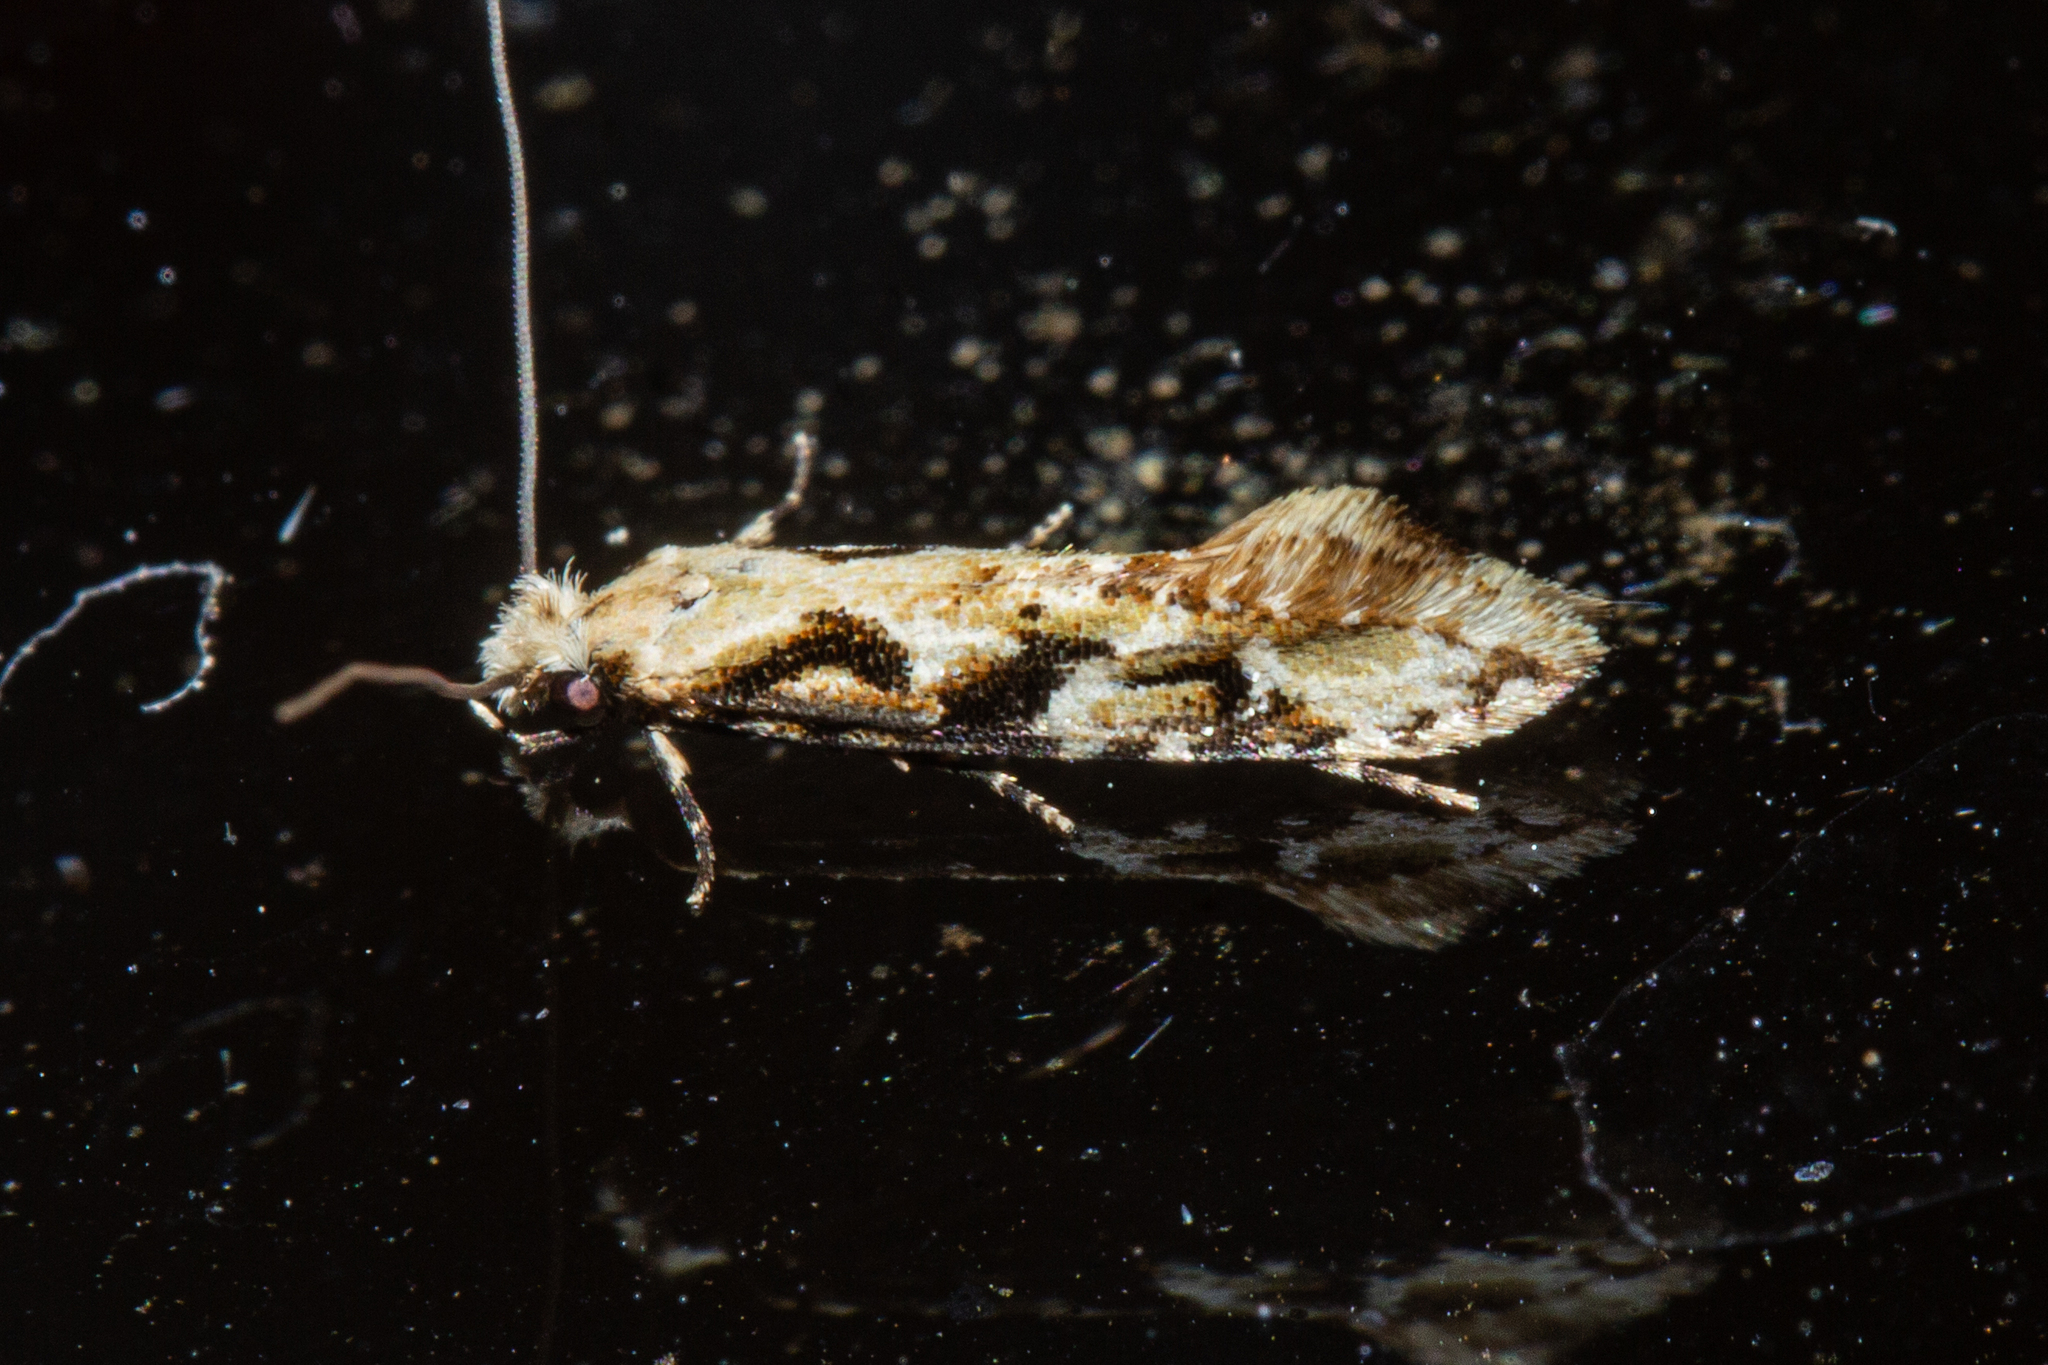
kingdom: Animalia
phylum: Arthropoda
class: Insecta
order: Lepidoptera
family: Tineidae
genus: Crypsitricha
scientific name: Crypsitricha mesotypa
